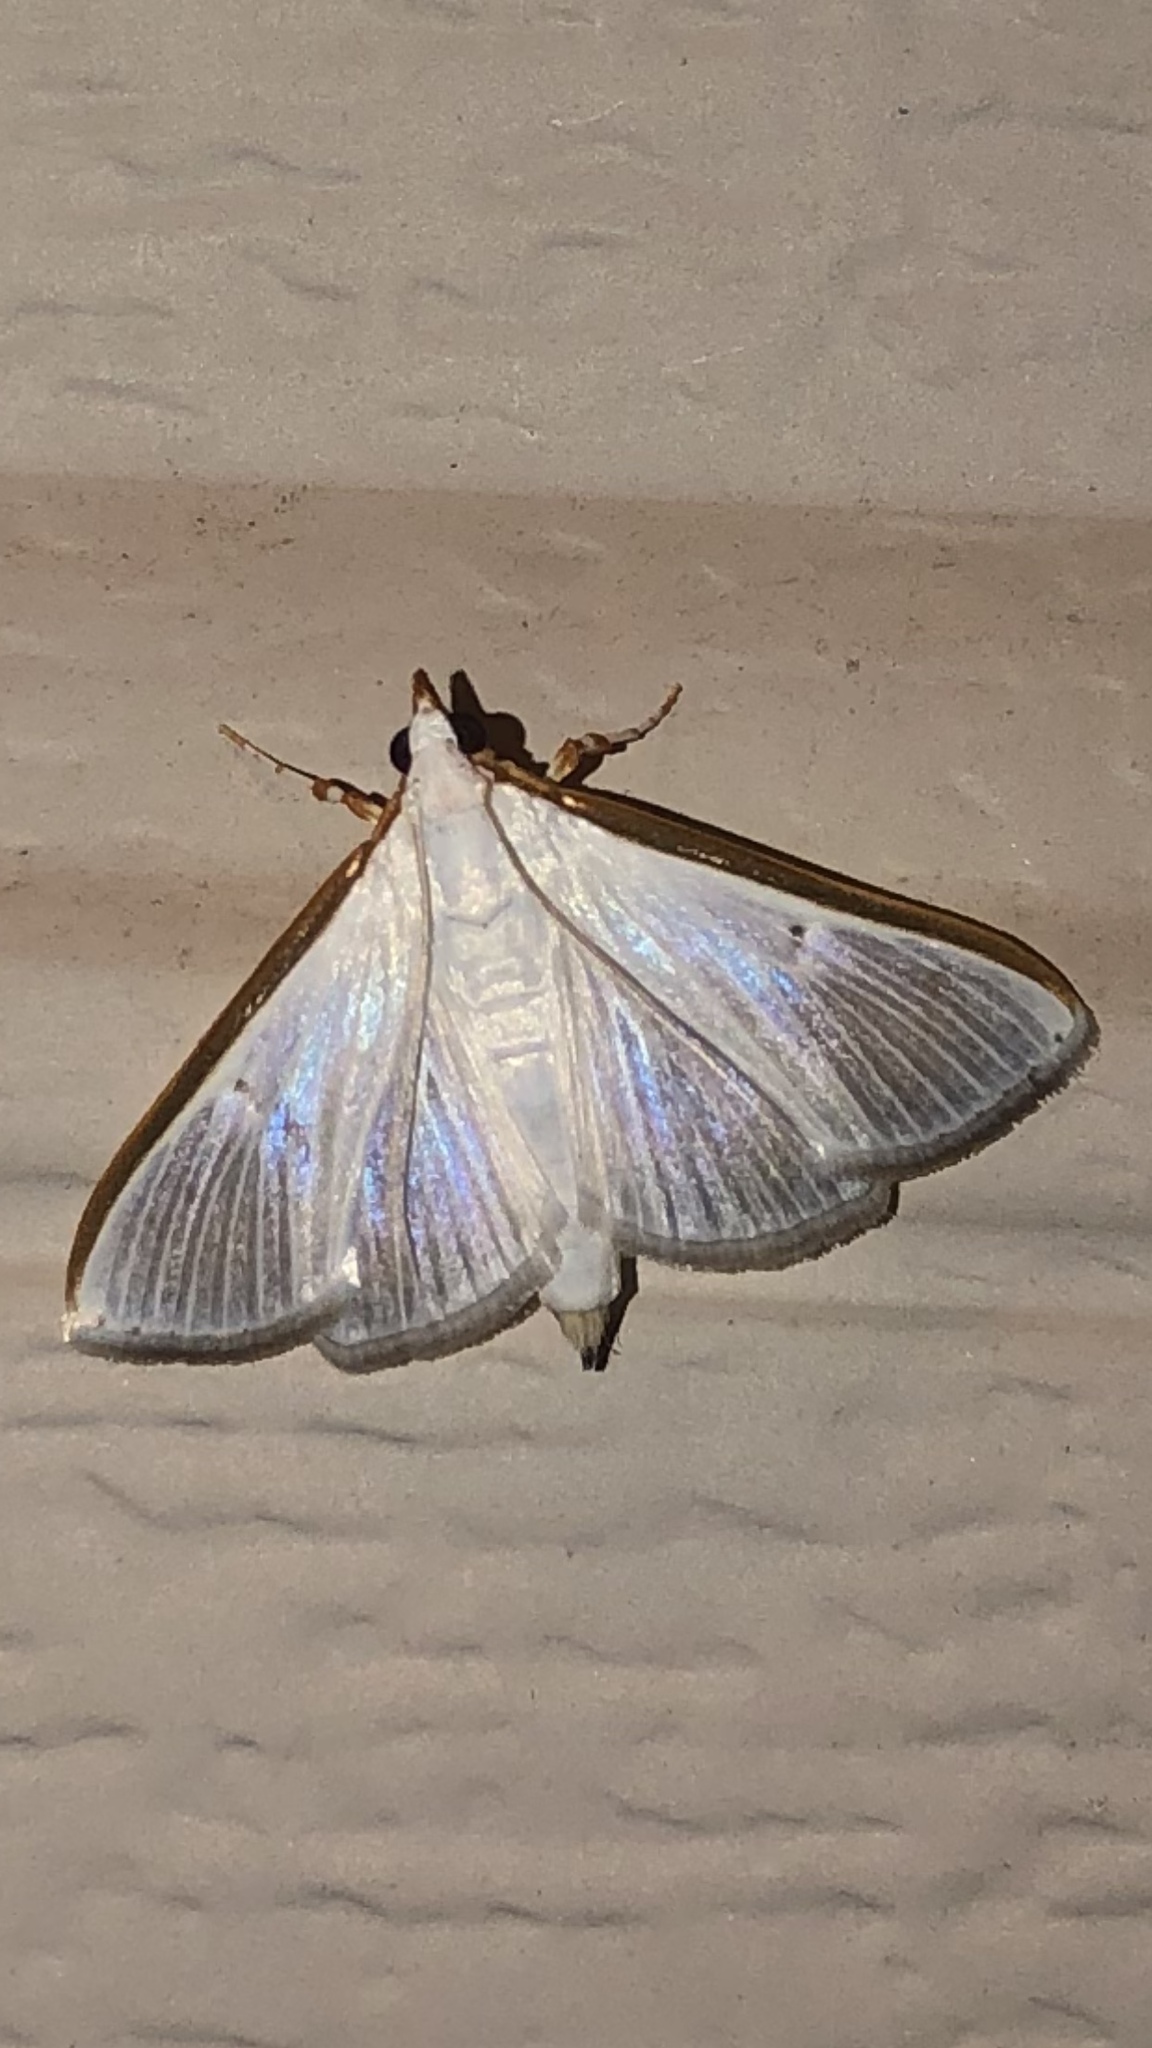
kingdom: Animalia
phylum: Arthropoda
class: Insecta
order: Lepidoptera
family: Crambidae
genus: Diaphania
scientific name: Diaphania costata
